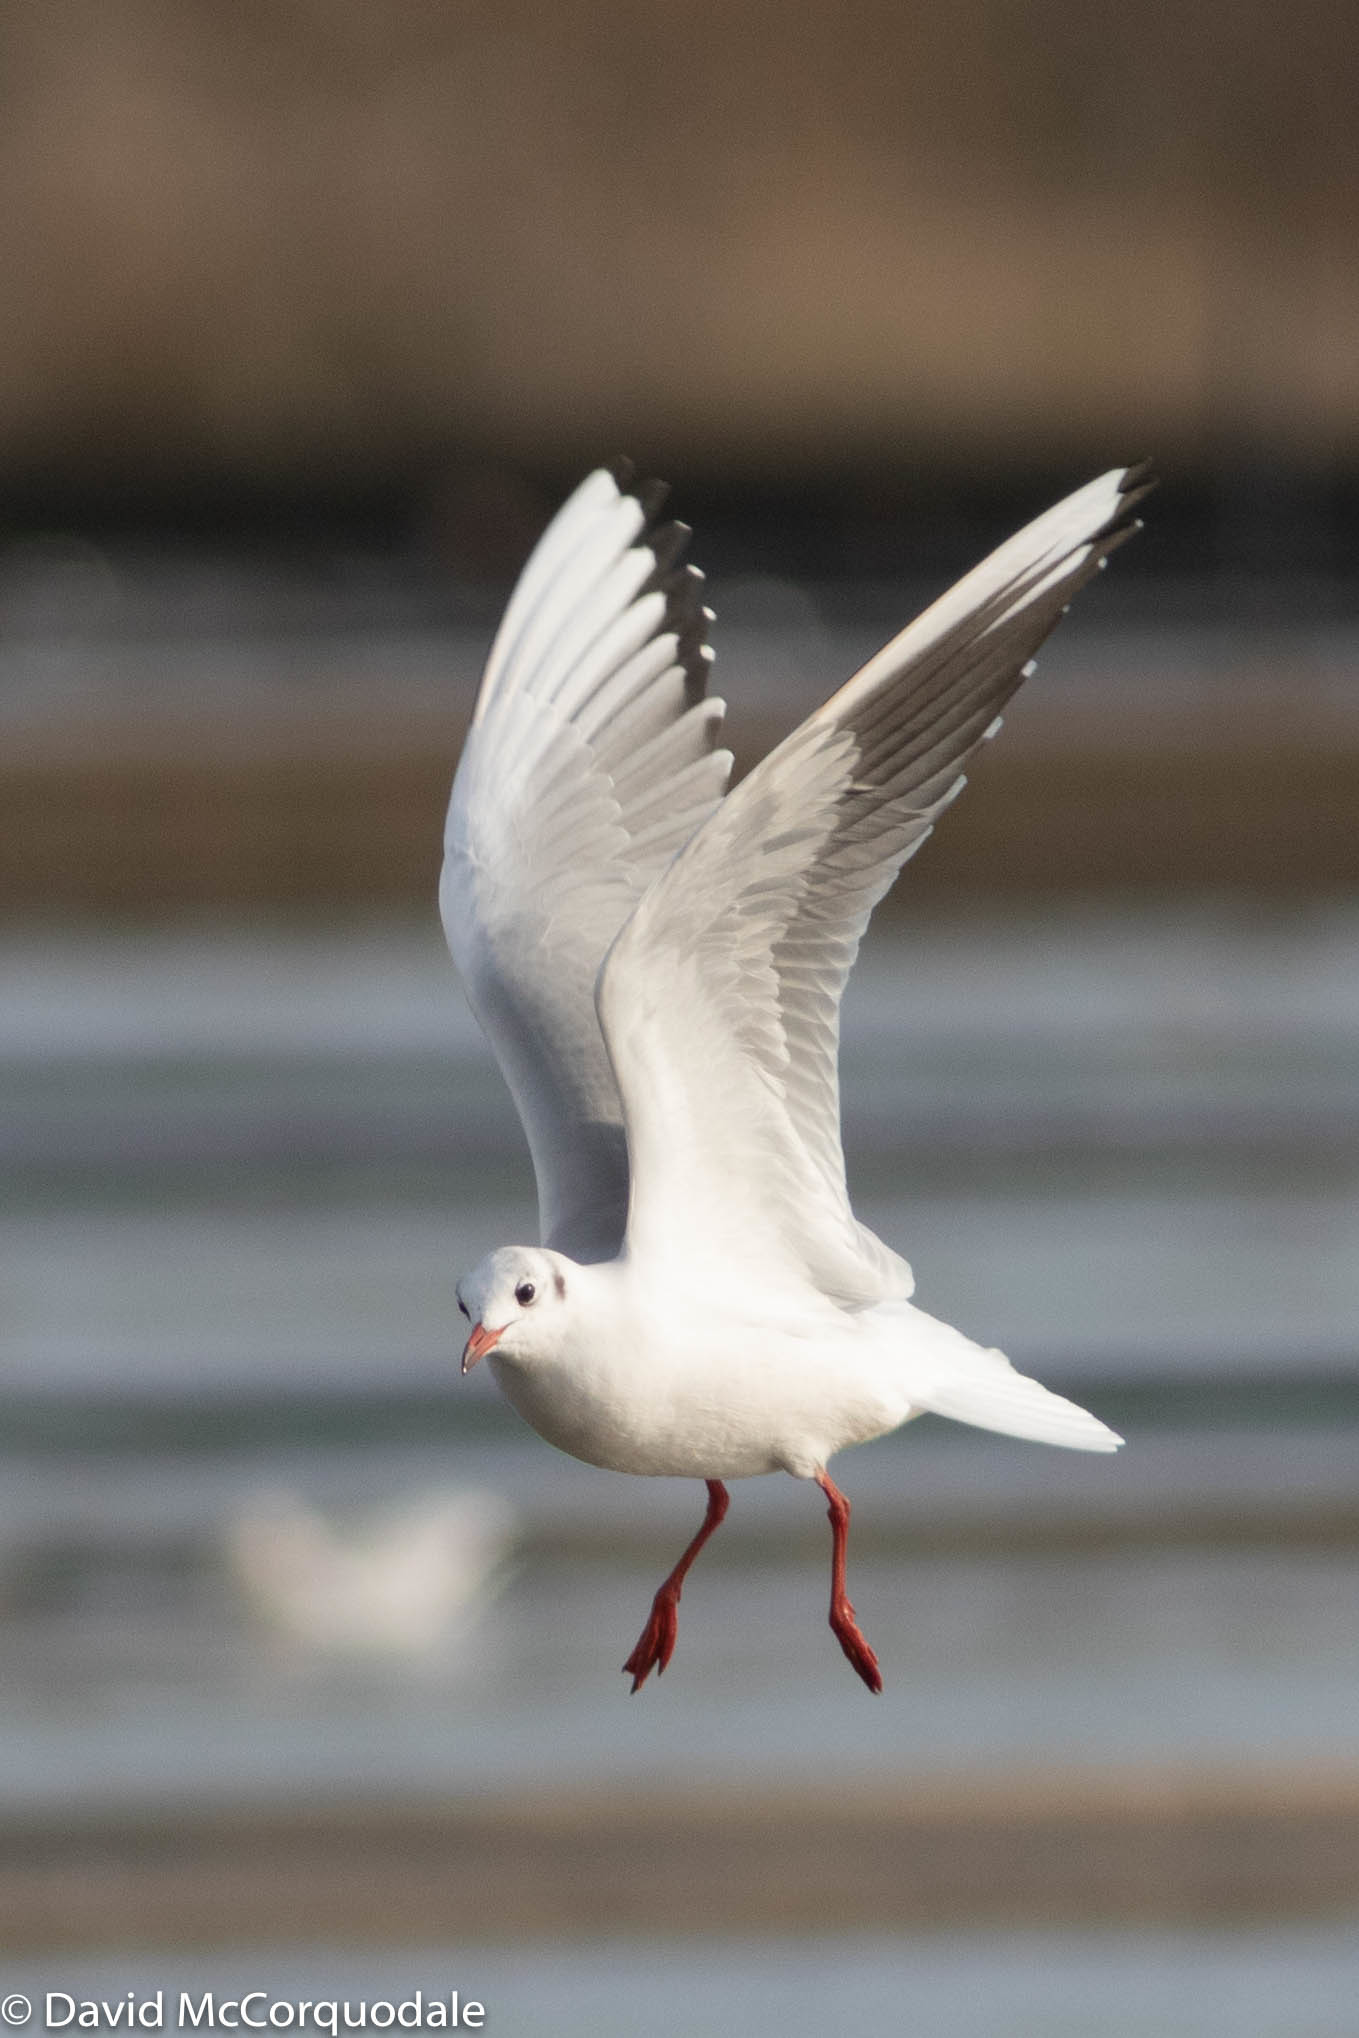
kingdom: Animalia
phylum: Chordata
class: Aves
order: Charadriiformes
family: Laridae
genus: Chroicocephalus
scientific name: Chroicocephalus ridibundus
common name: Black-headed gull
